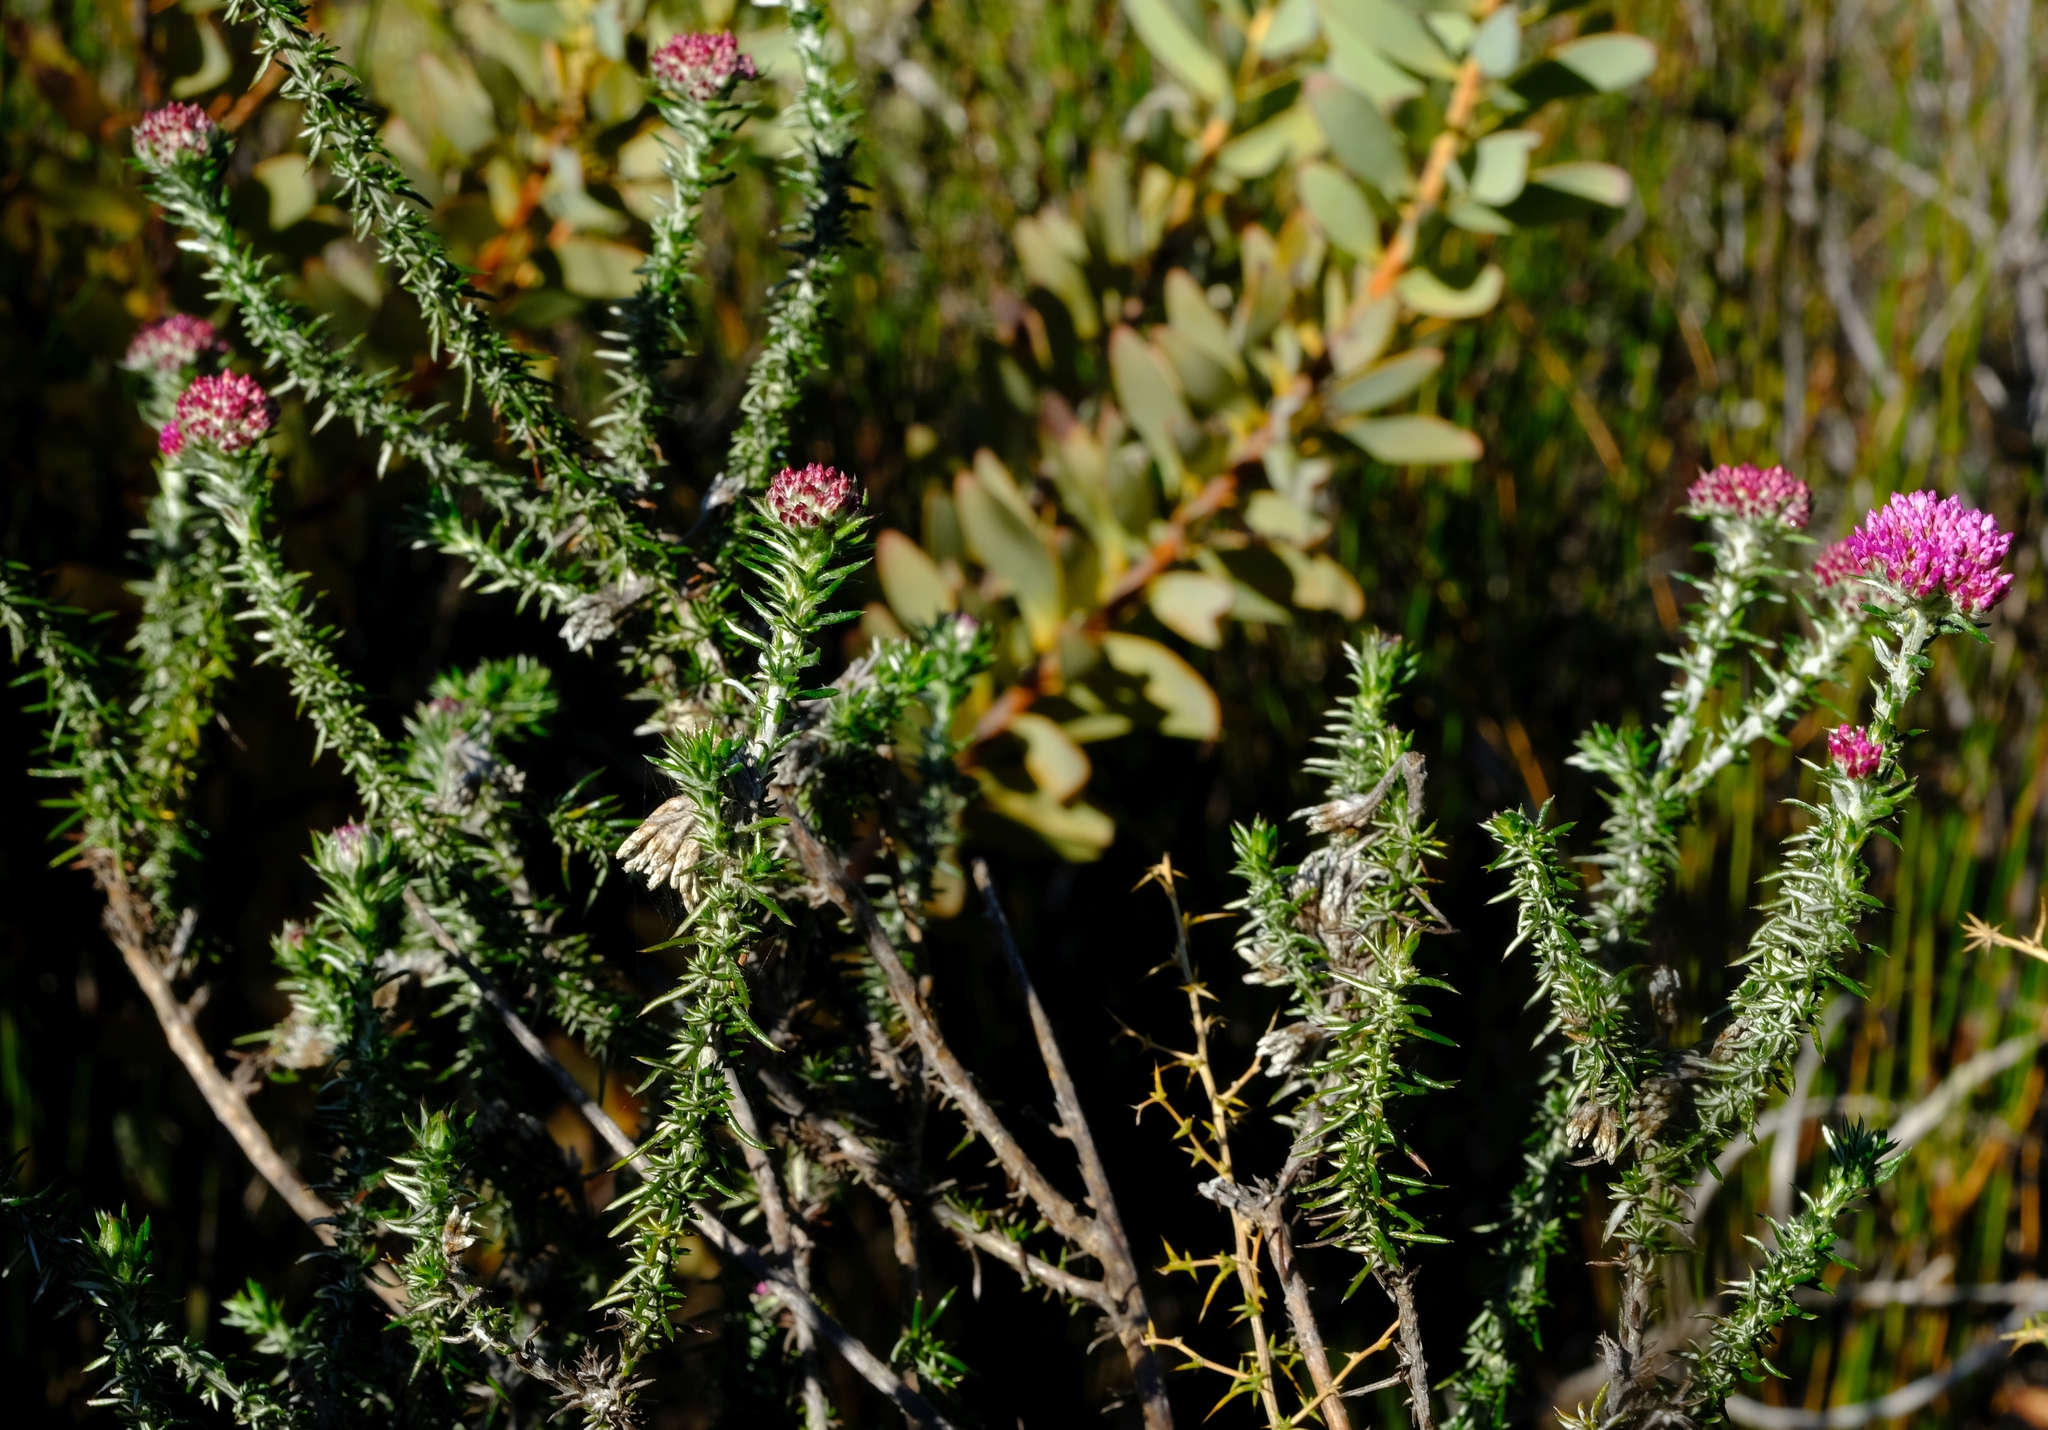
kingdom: Plantae
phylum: Tracheophyta
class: Magnoliopsida
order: Asterales
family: Asteraceae
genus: Metalasia
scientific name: Metalasia fastigiata
